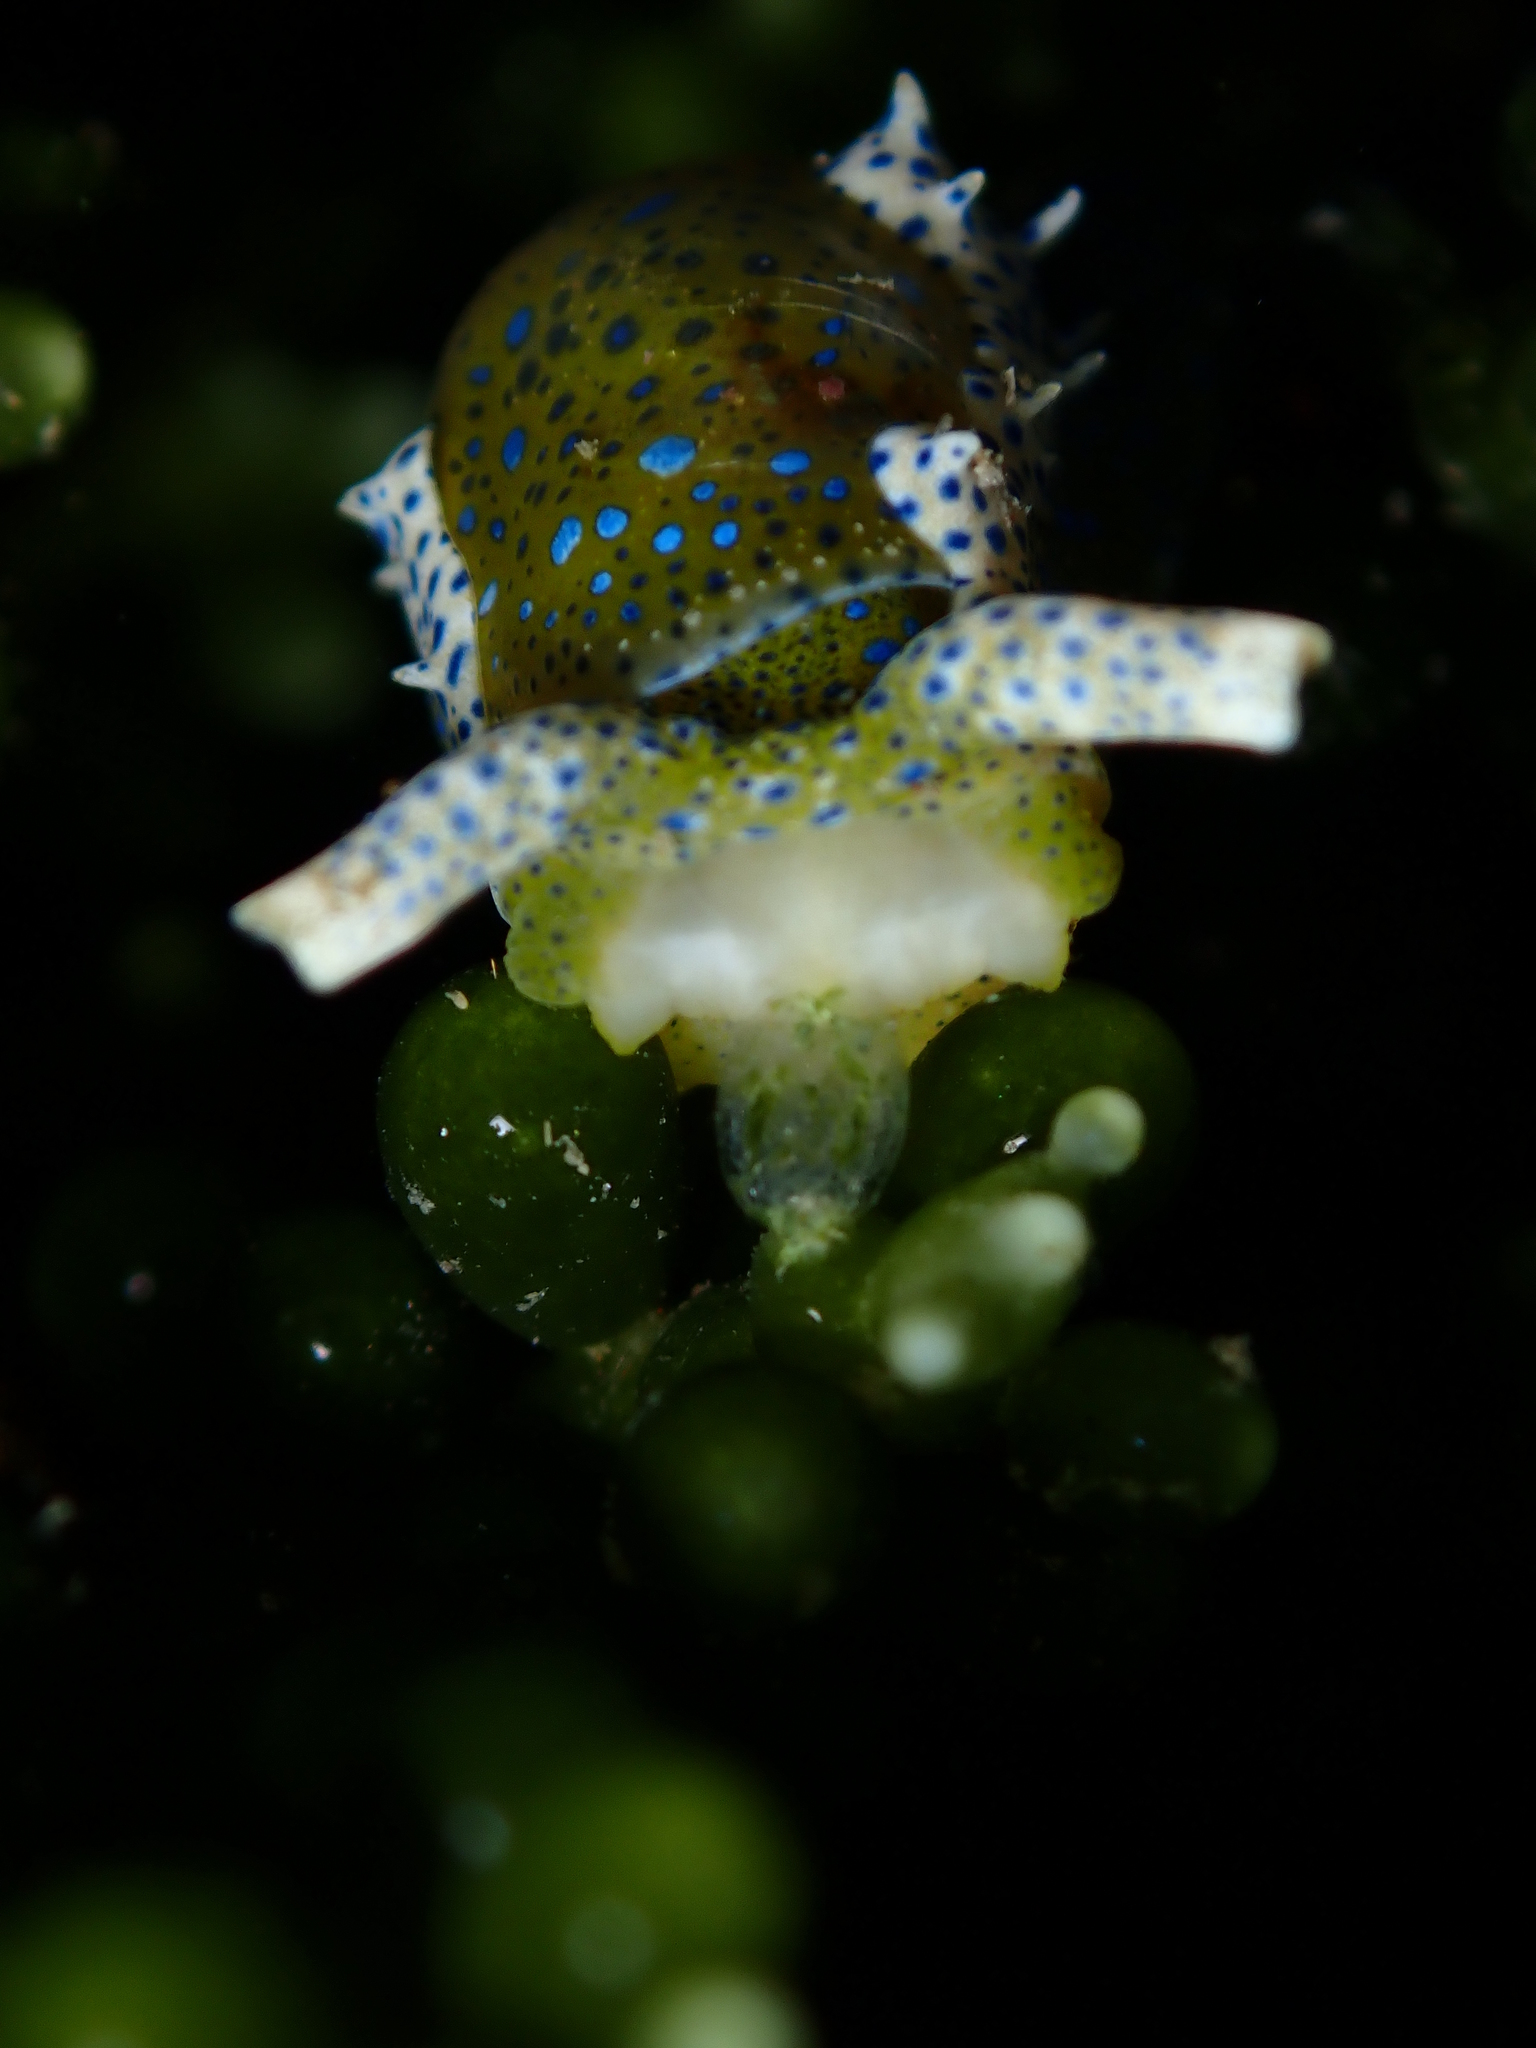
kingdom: Animalia
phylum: Mollusca
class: Gastropoda
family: Oxynoidae
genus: Oxynoe
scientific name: Oxynoe viridis
